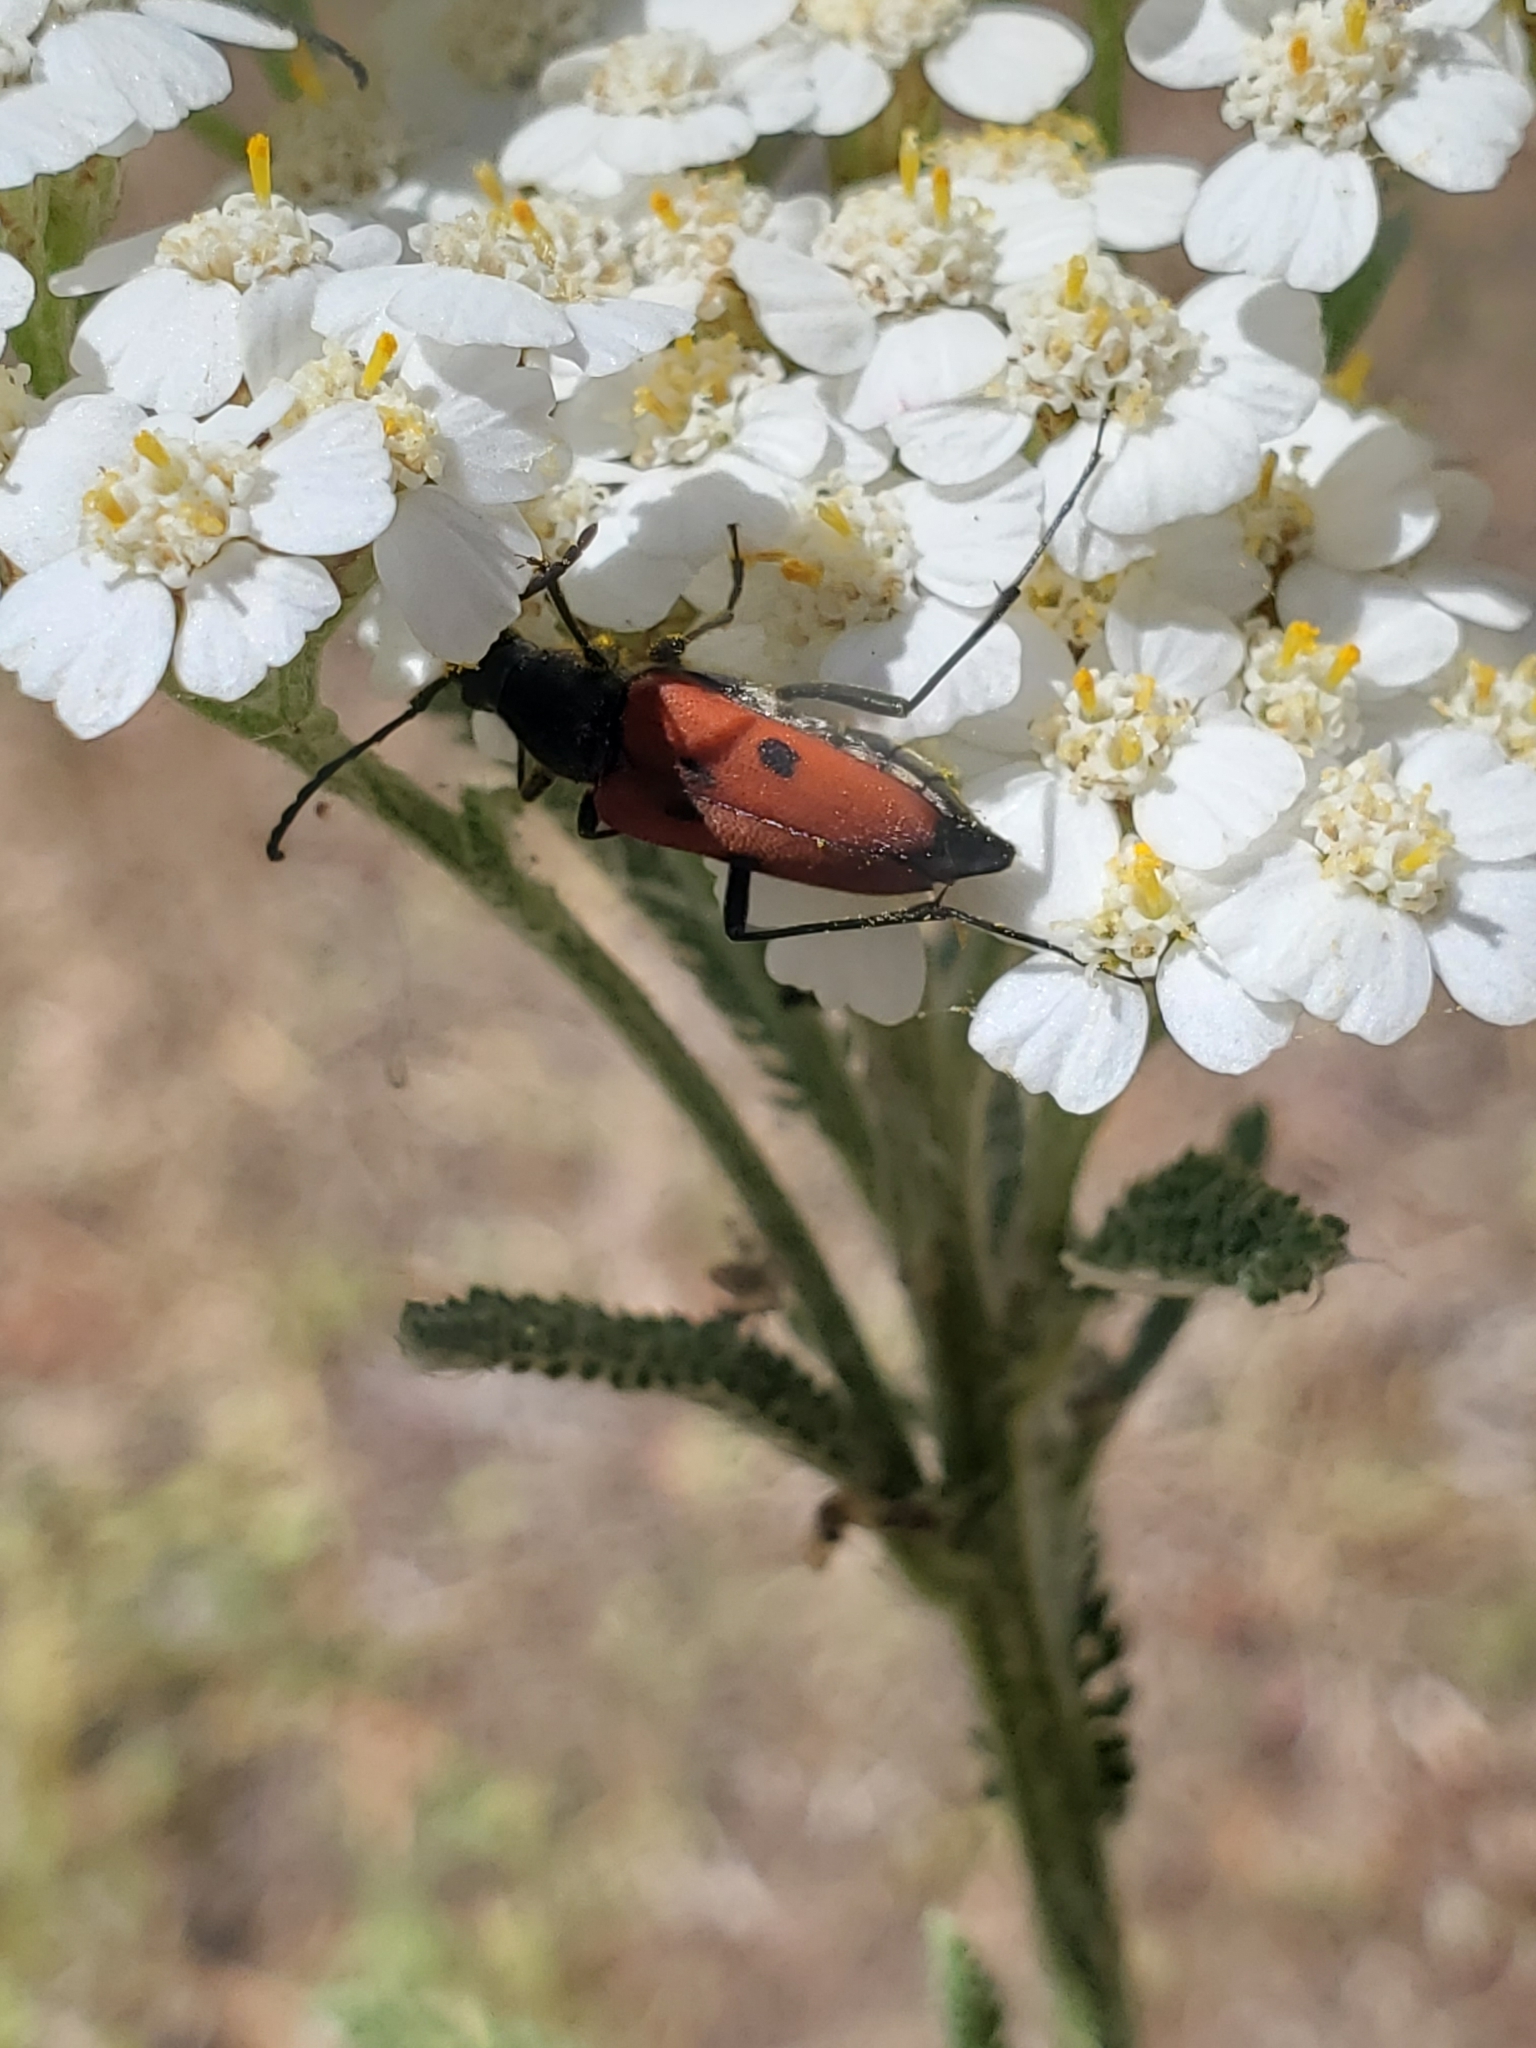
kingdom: Animalia
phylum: Arthropoda
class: Insecta
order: Coleoptera
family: Cerambycidae
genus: Anastrangalia
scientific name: Anastrangalia laetifica
